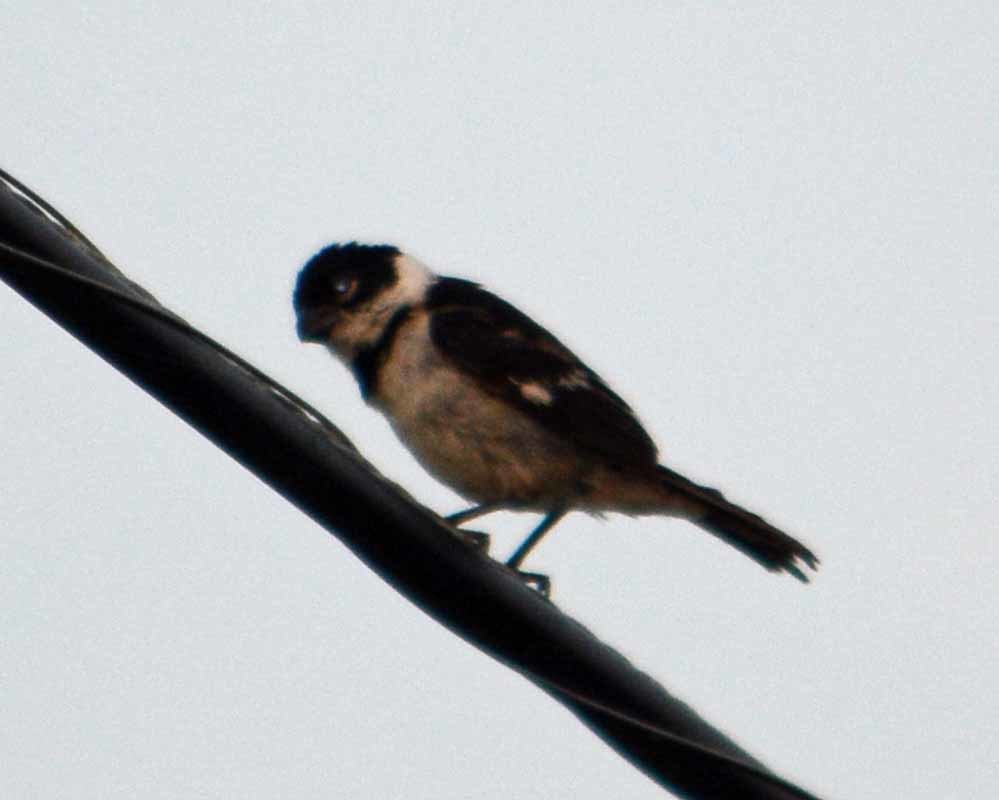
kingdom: Animalia
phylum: Chordata
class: Aves
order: Passeriformes
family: Thraupidae
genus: Sporophila
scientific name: Sporophila morelleti
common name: Morelet's seedeater
